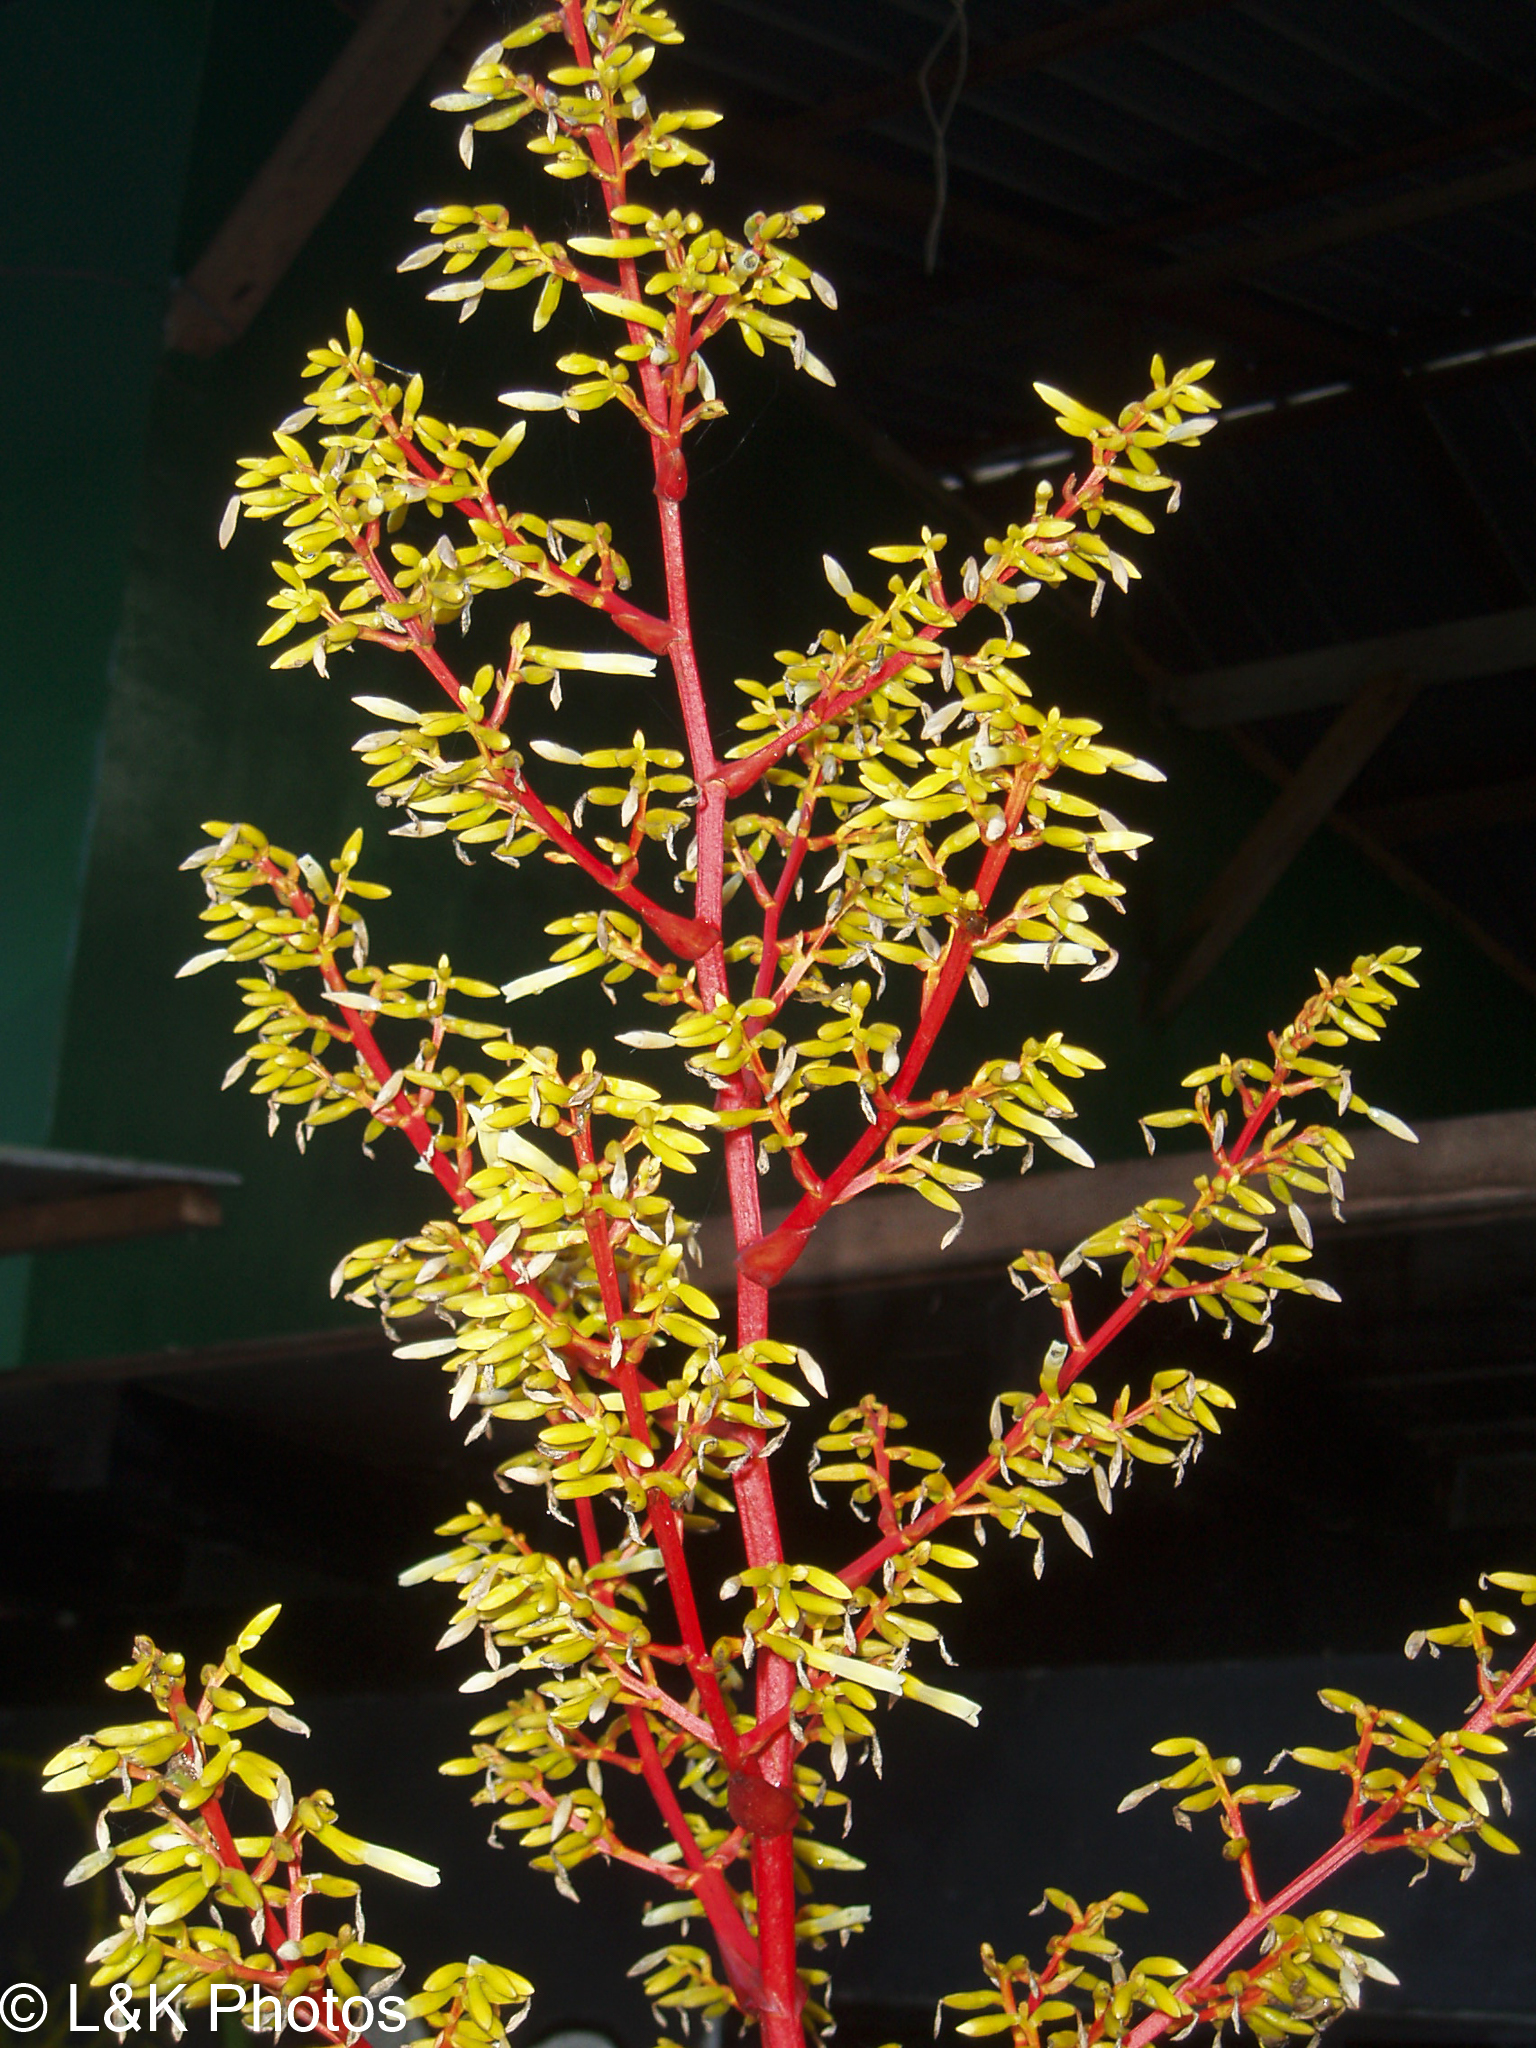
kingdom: Plantae
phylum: Tracheophyta
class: Liliopsida
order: Poales
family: Bromeliaceae
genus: Guzmania
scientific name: Guzmania diffusa
